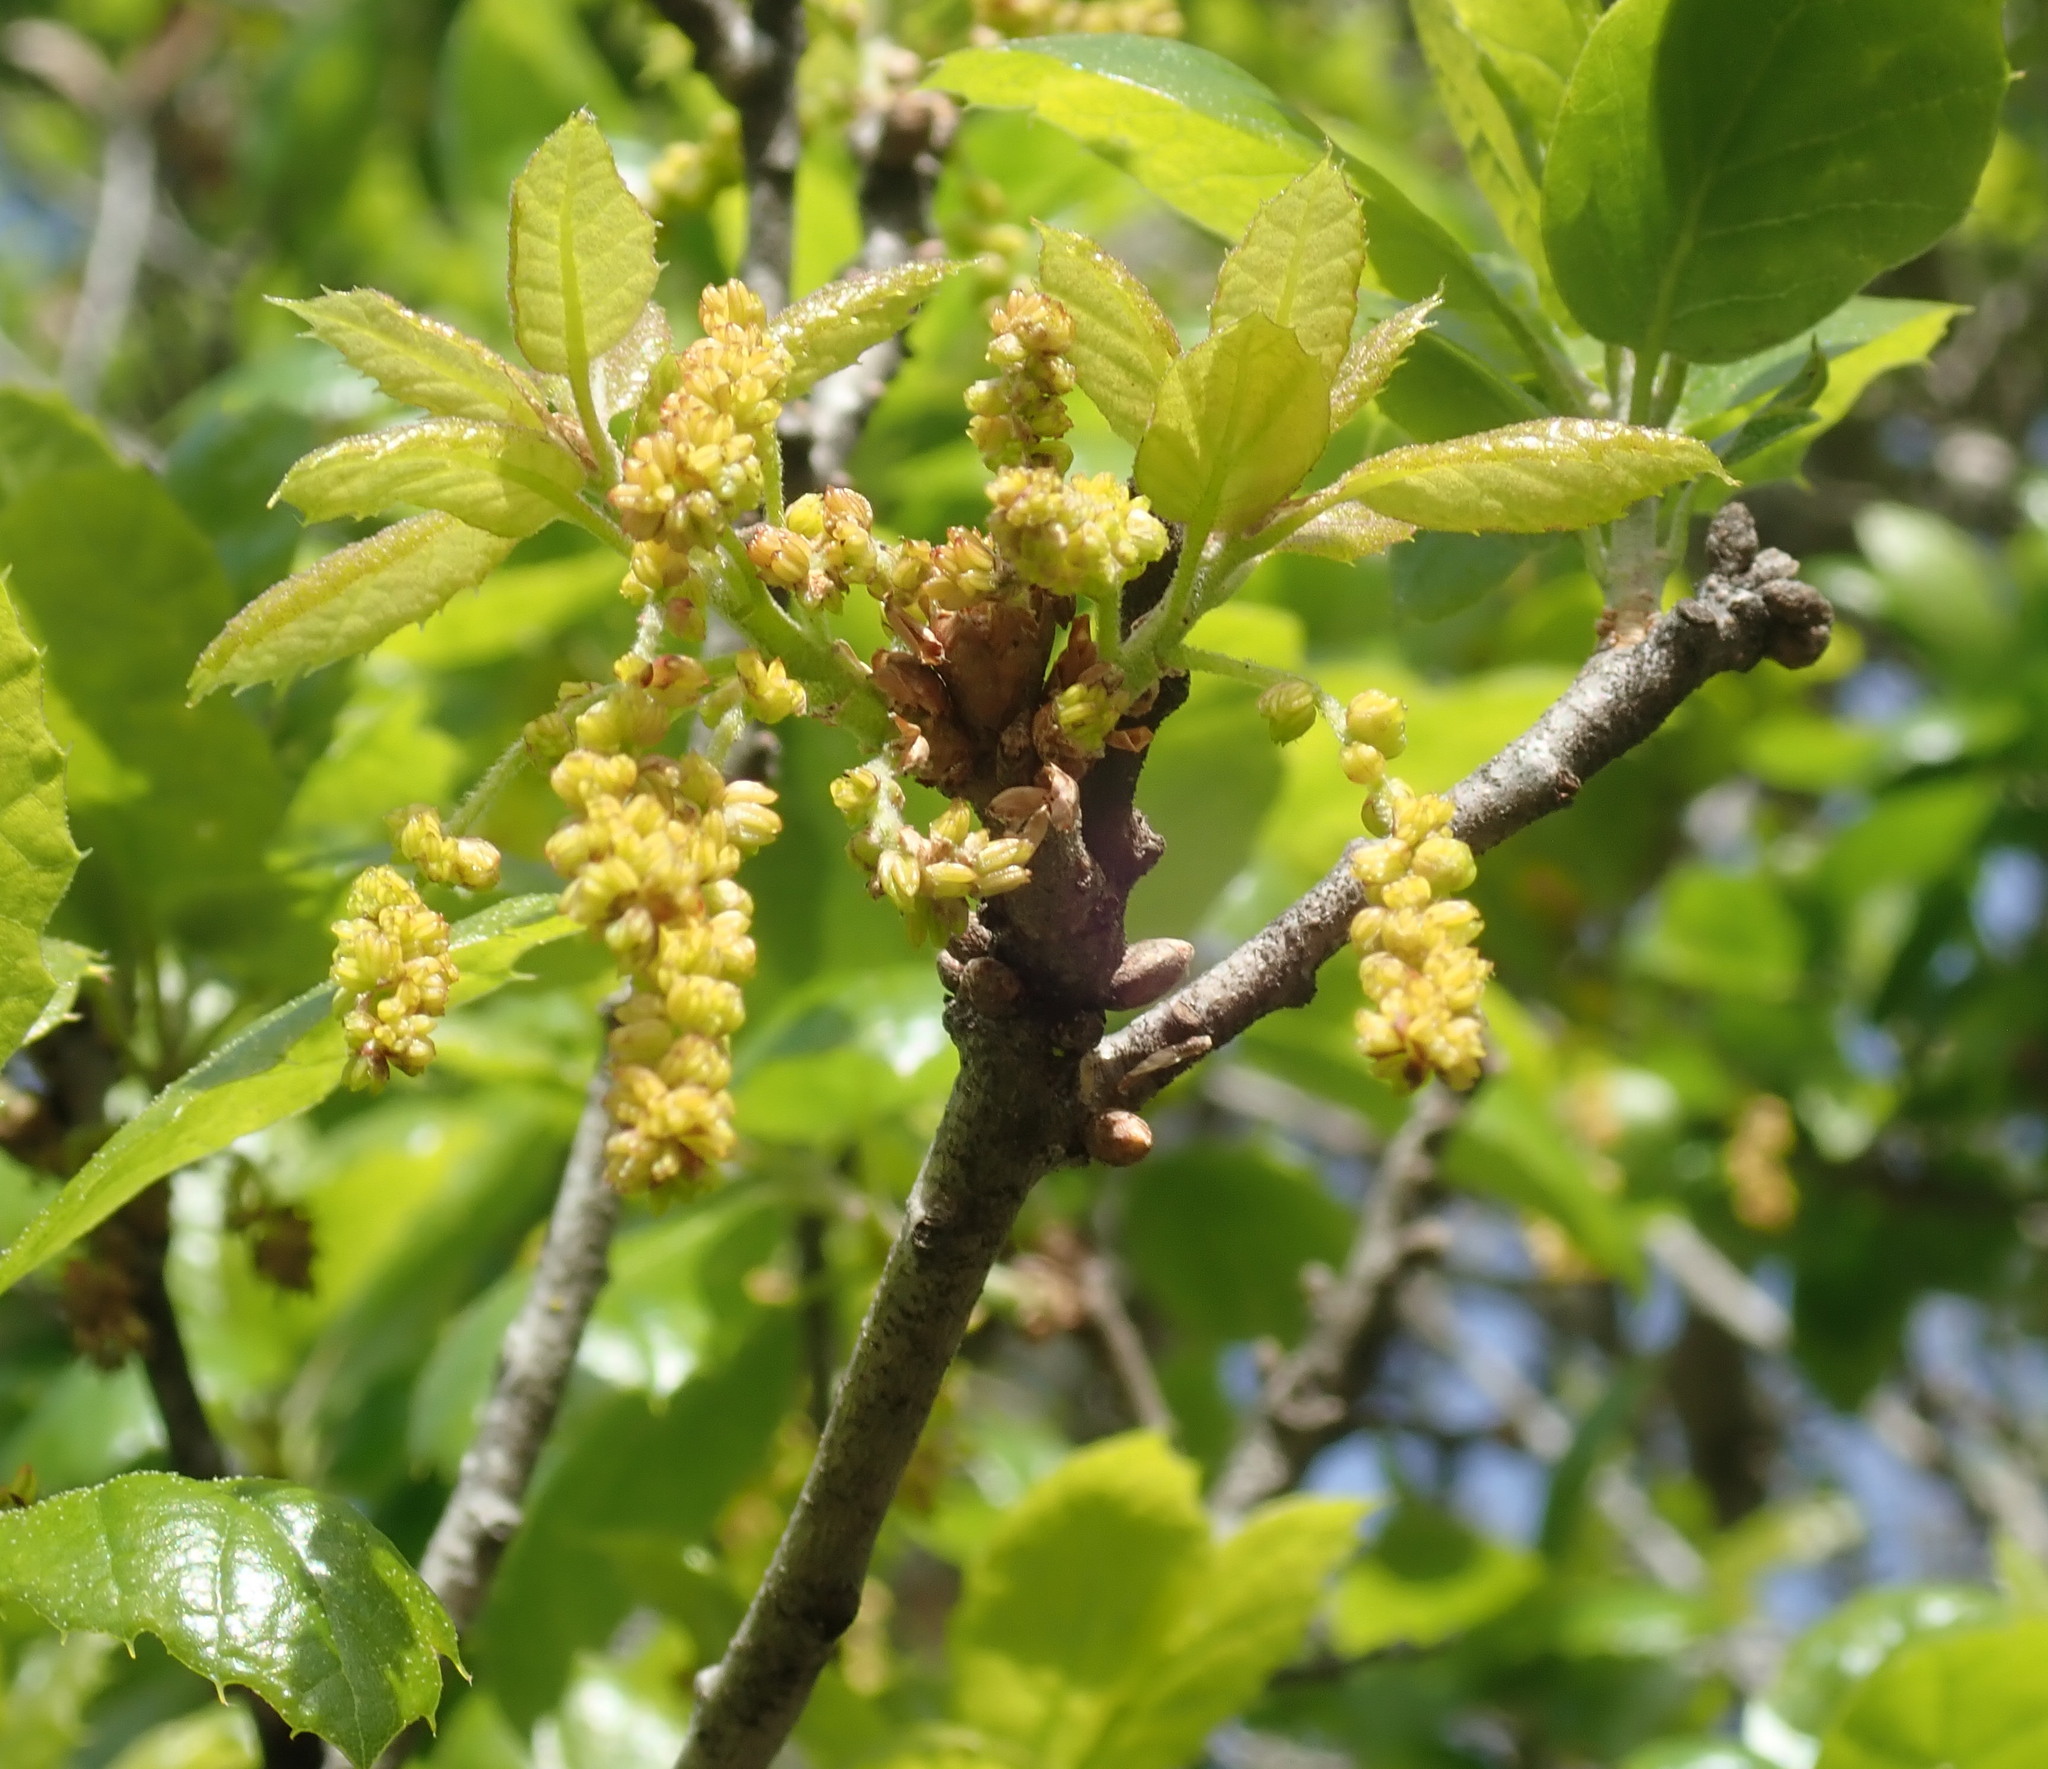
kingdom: Plantae
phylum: Tracheophyta
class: Magnoliopsida
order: Fagales
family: Fagaceae
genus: Quercus
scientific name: Quercus agrifolia
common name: California live oak
